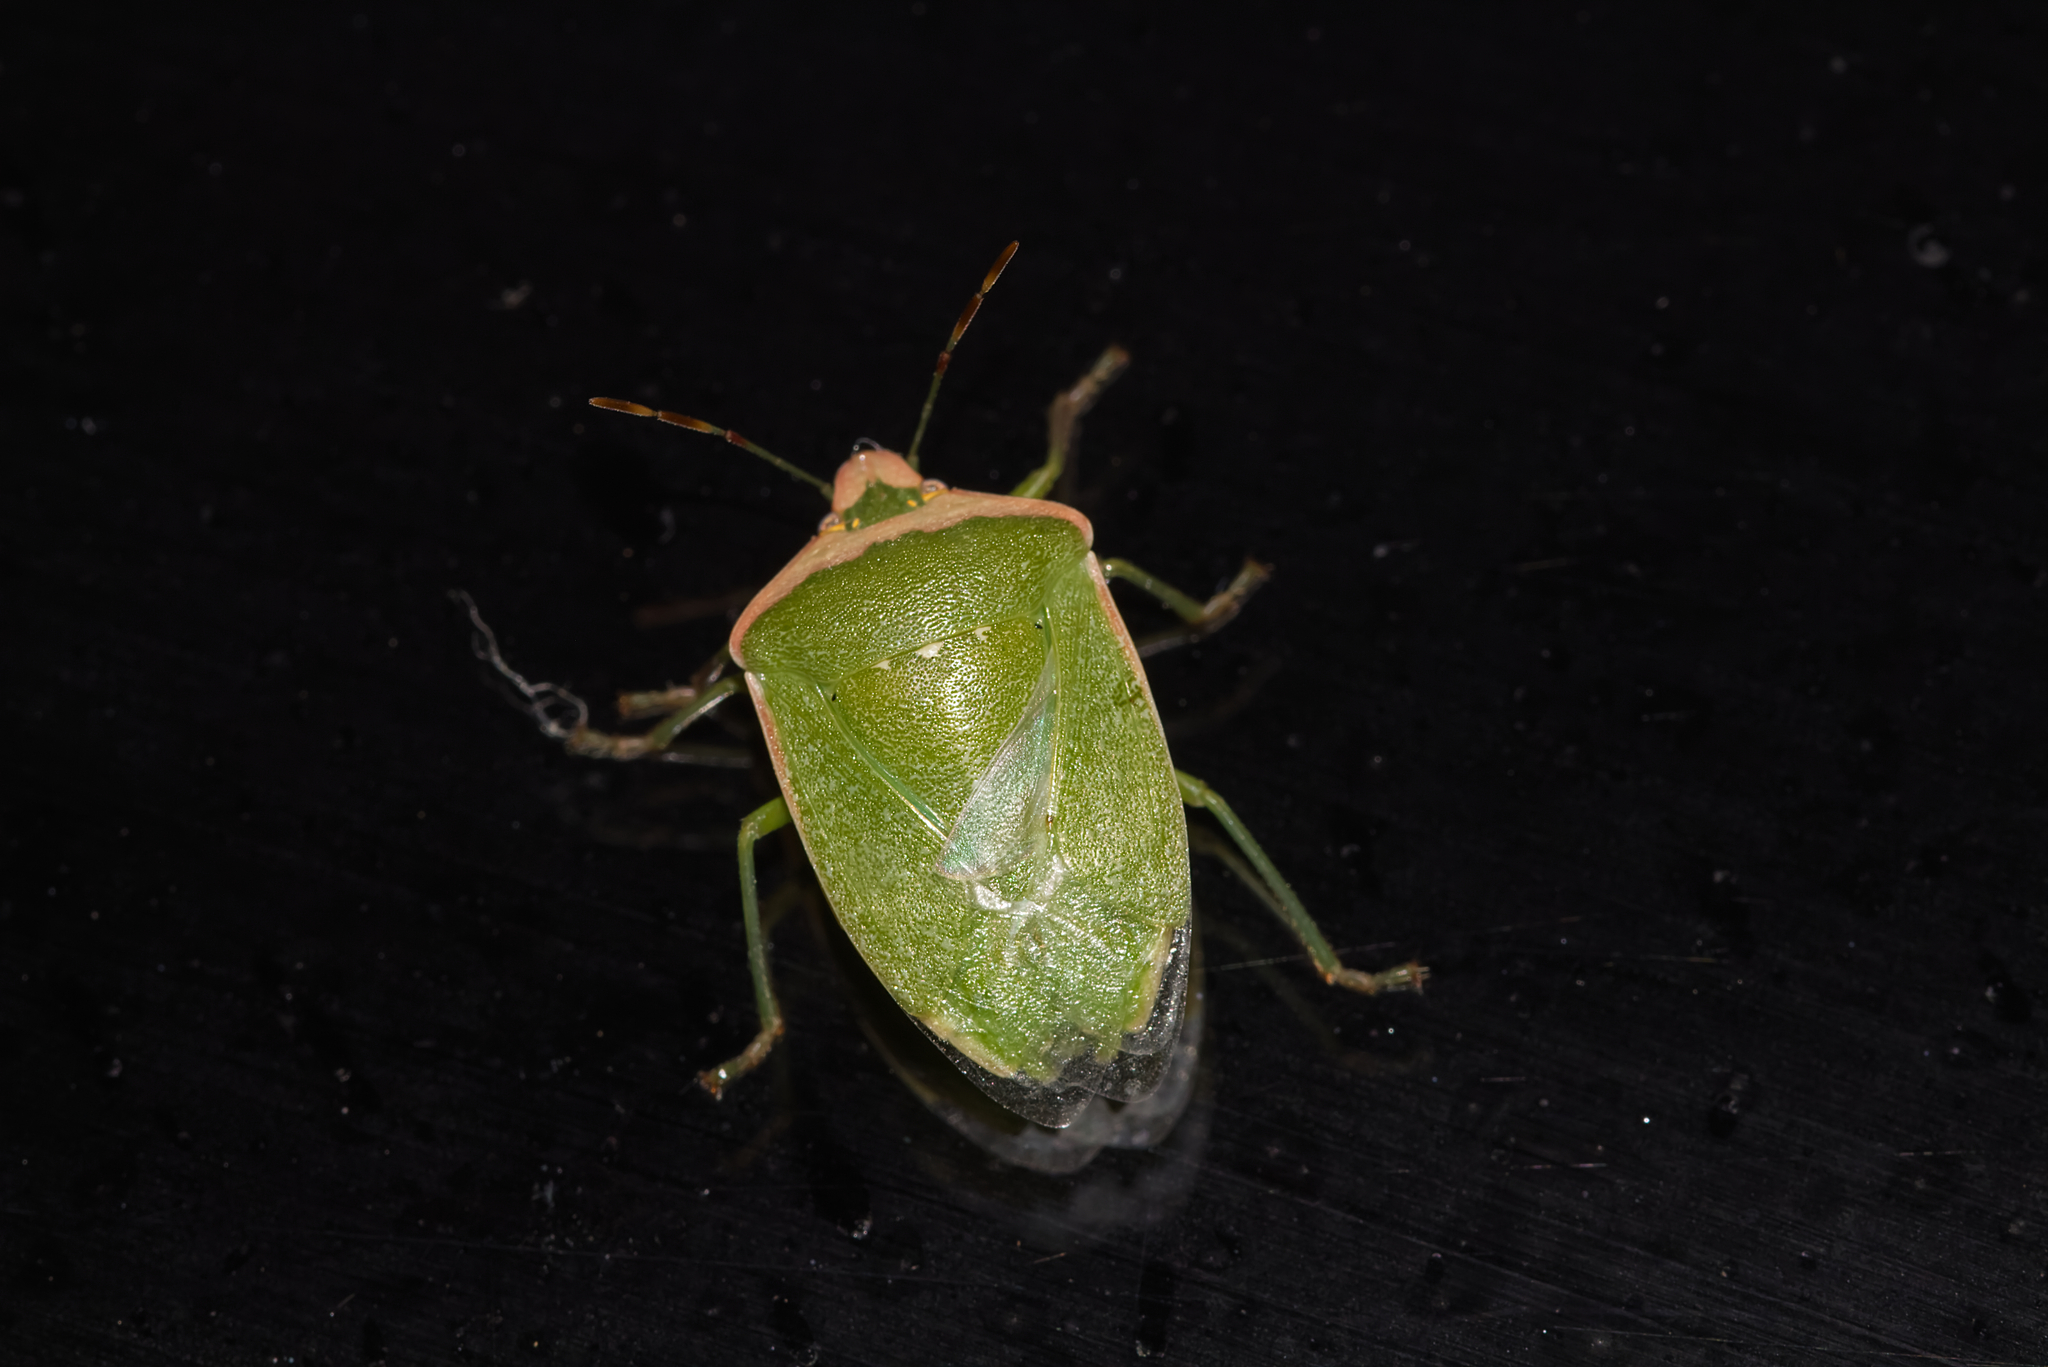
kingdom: Animalia
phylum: Arthropoda
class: Insecta
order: Hemiptera
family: Pentatomidae
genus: Nezara
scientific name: Nezara viridula
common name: Southern green stink bug
